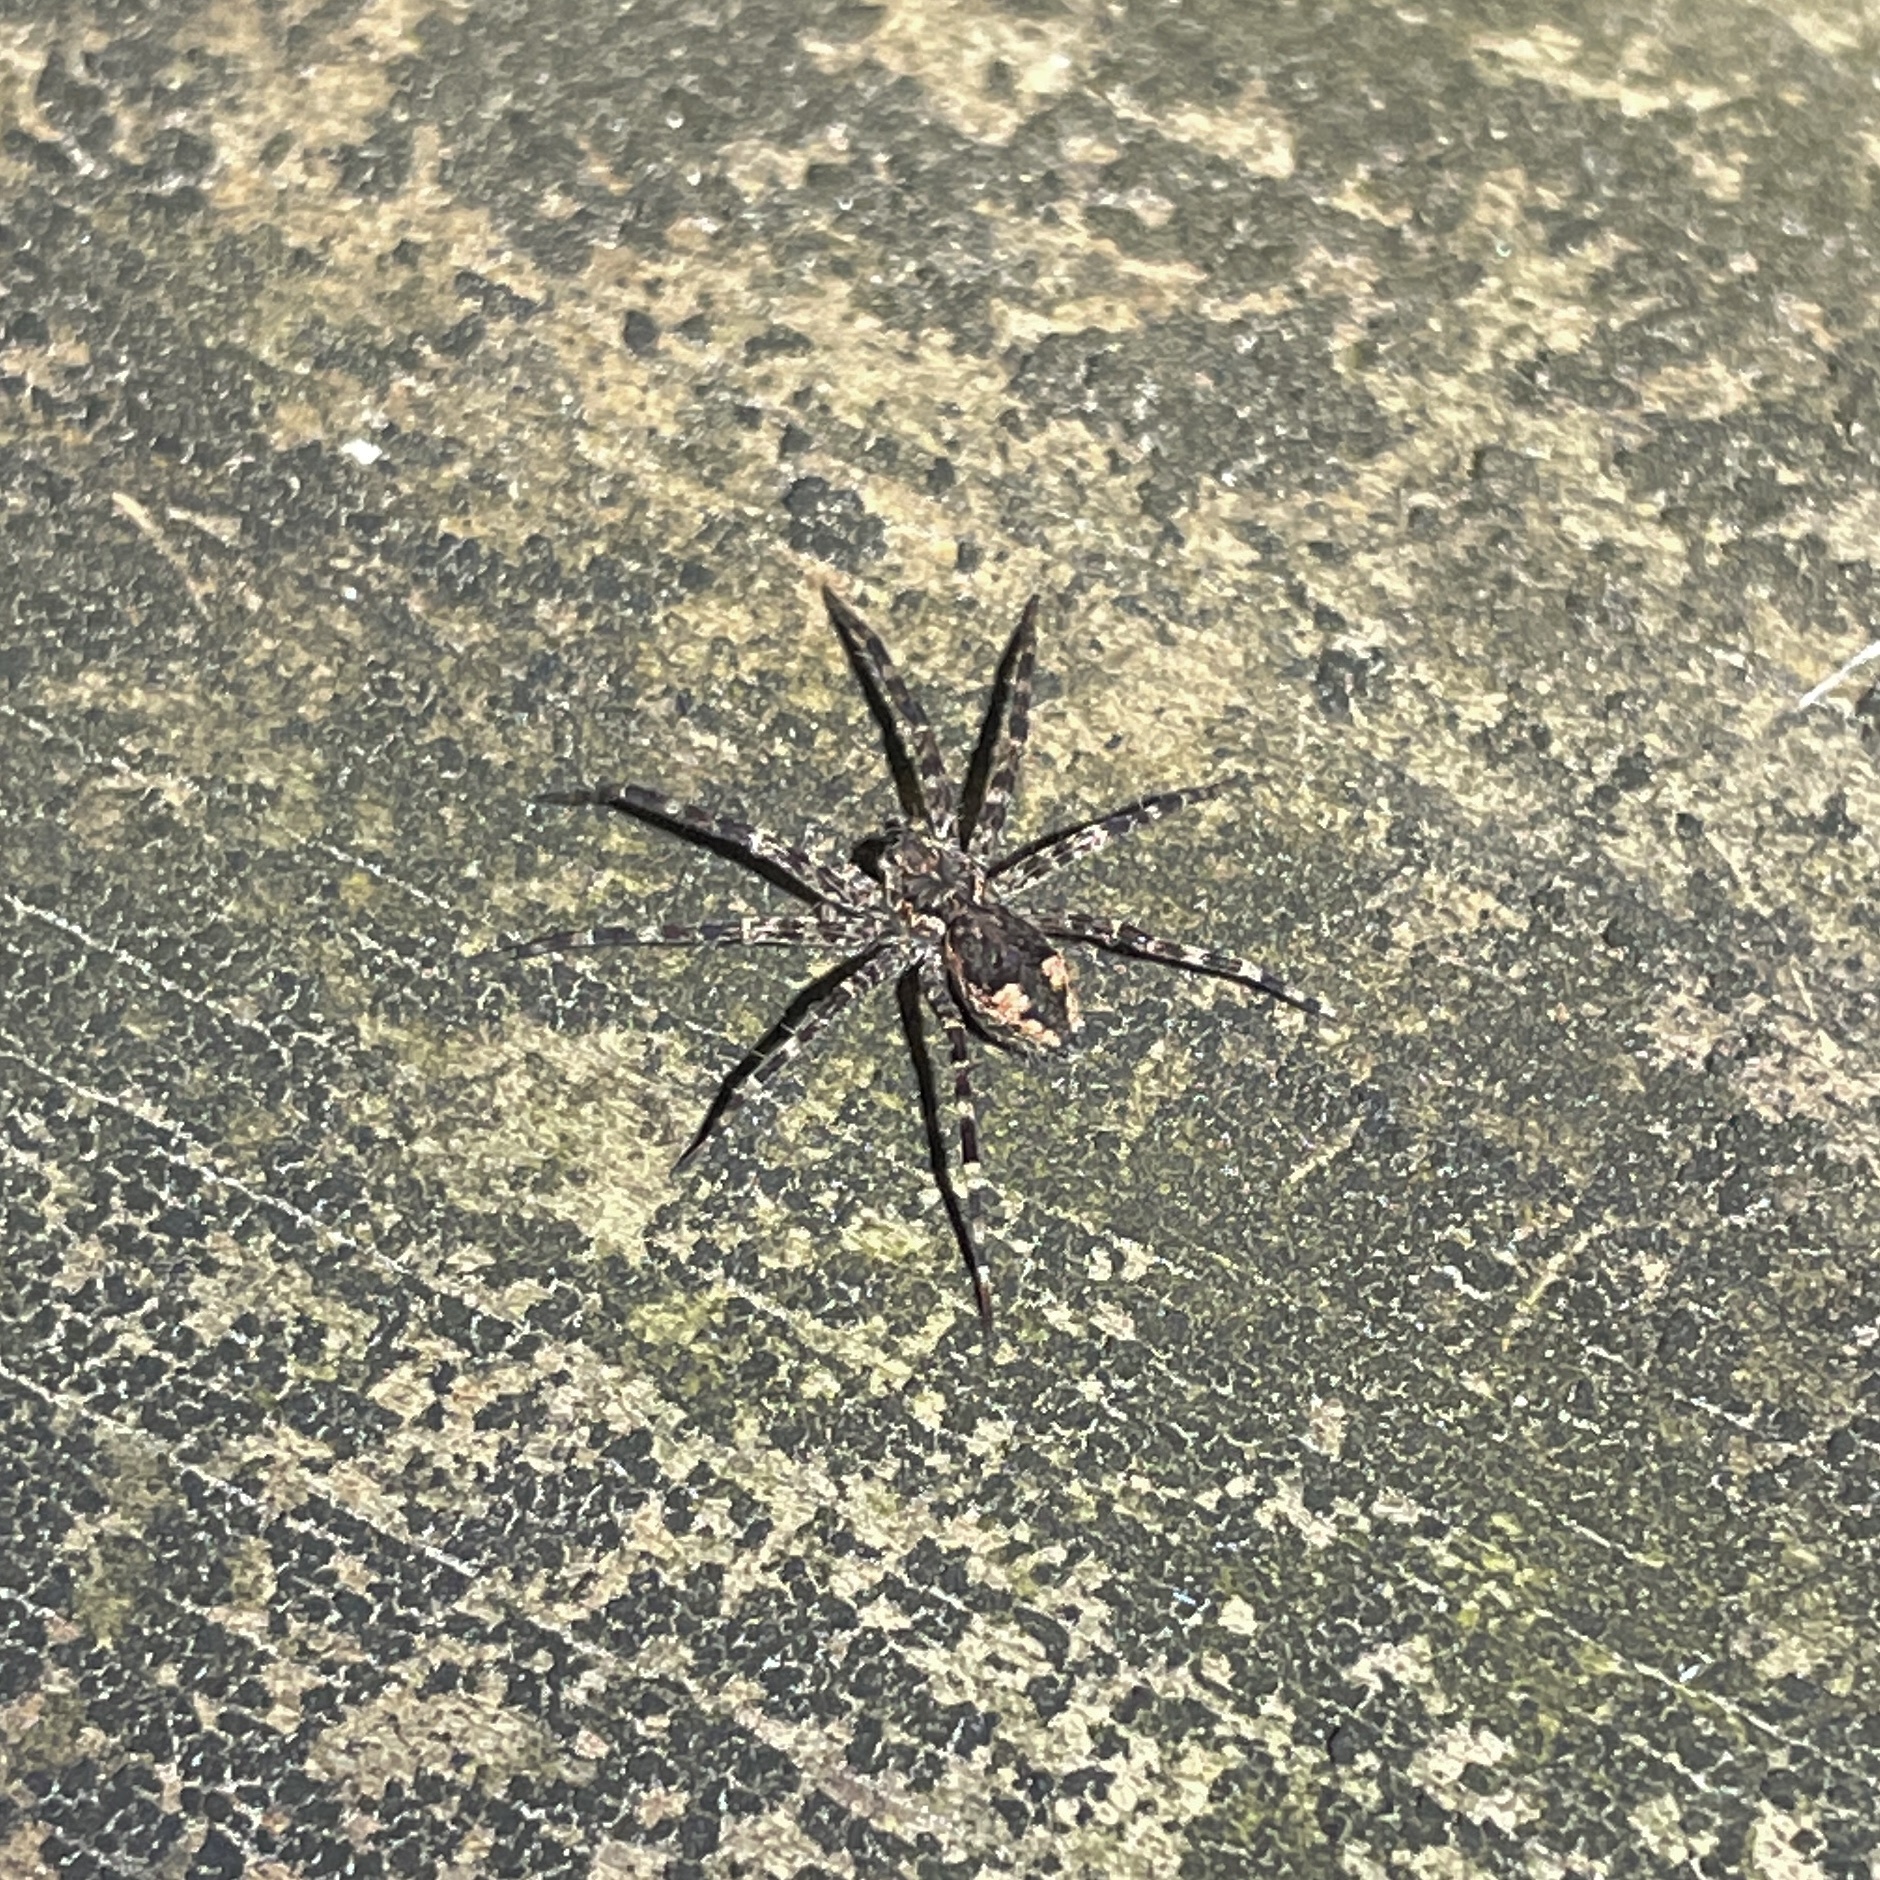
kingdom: Animalia
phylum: Arthropoda
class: Arachnida
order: Araneae
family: Pisauridae
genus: Dolomedes
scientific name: Dolomedes tenebrosus
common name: Dark fishing spider
